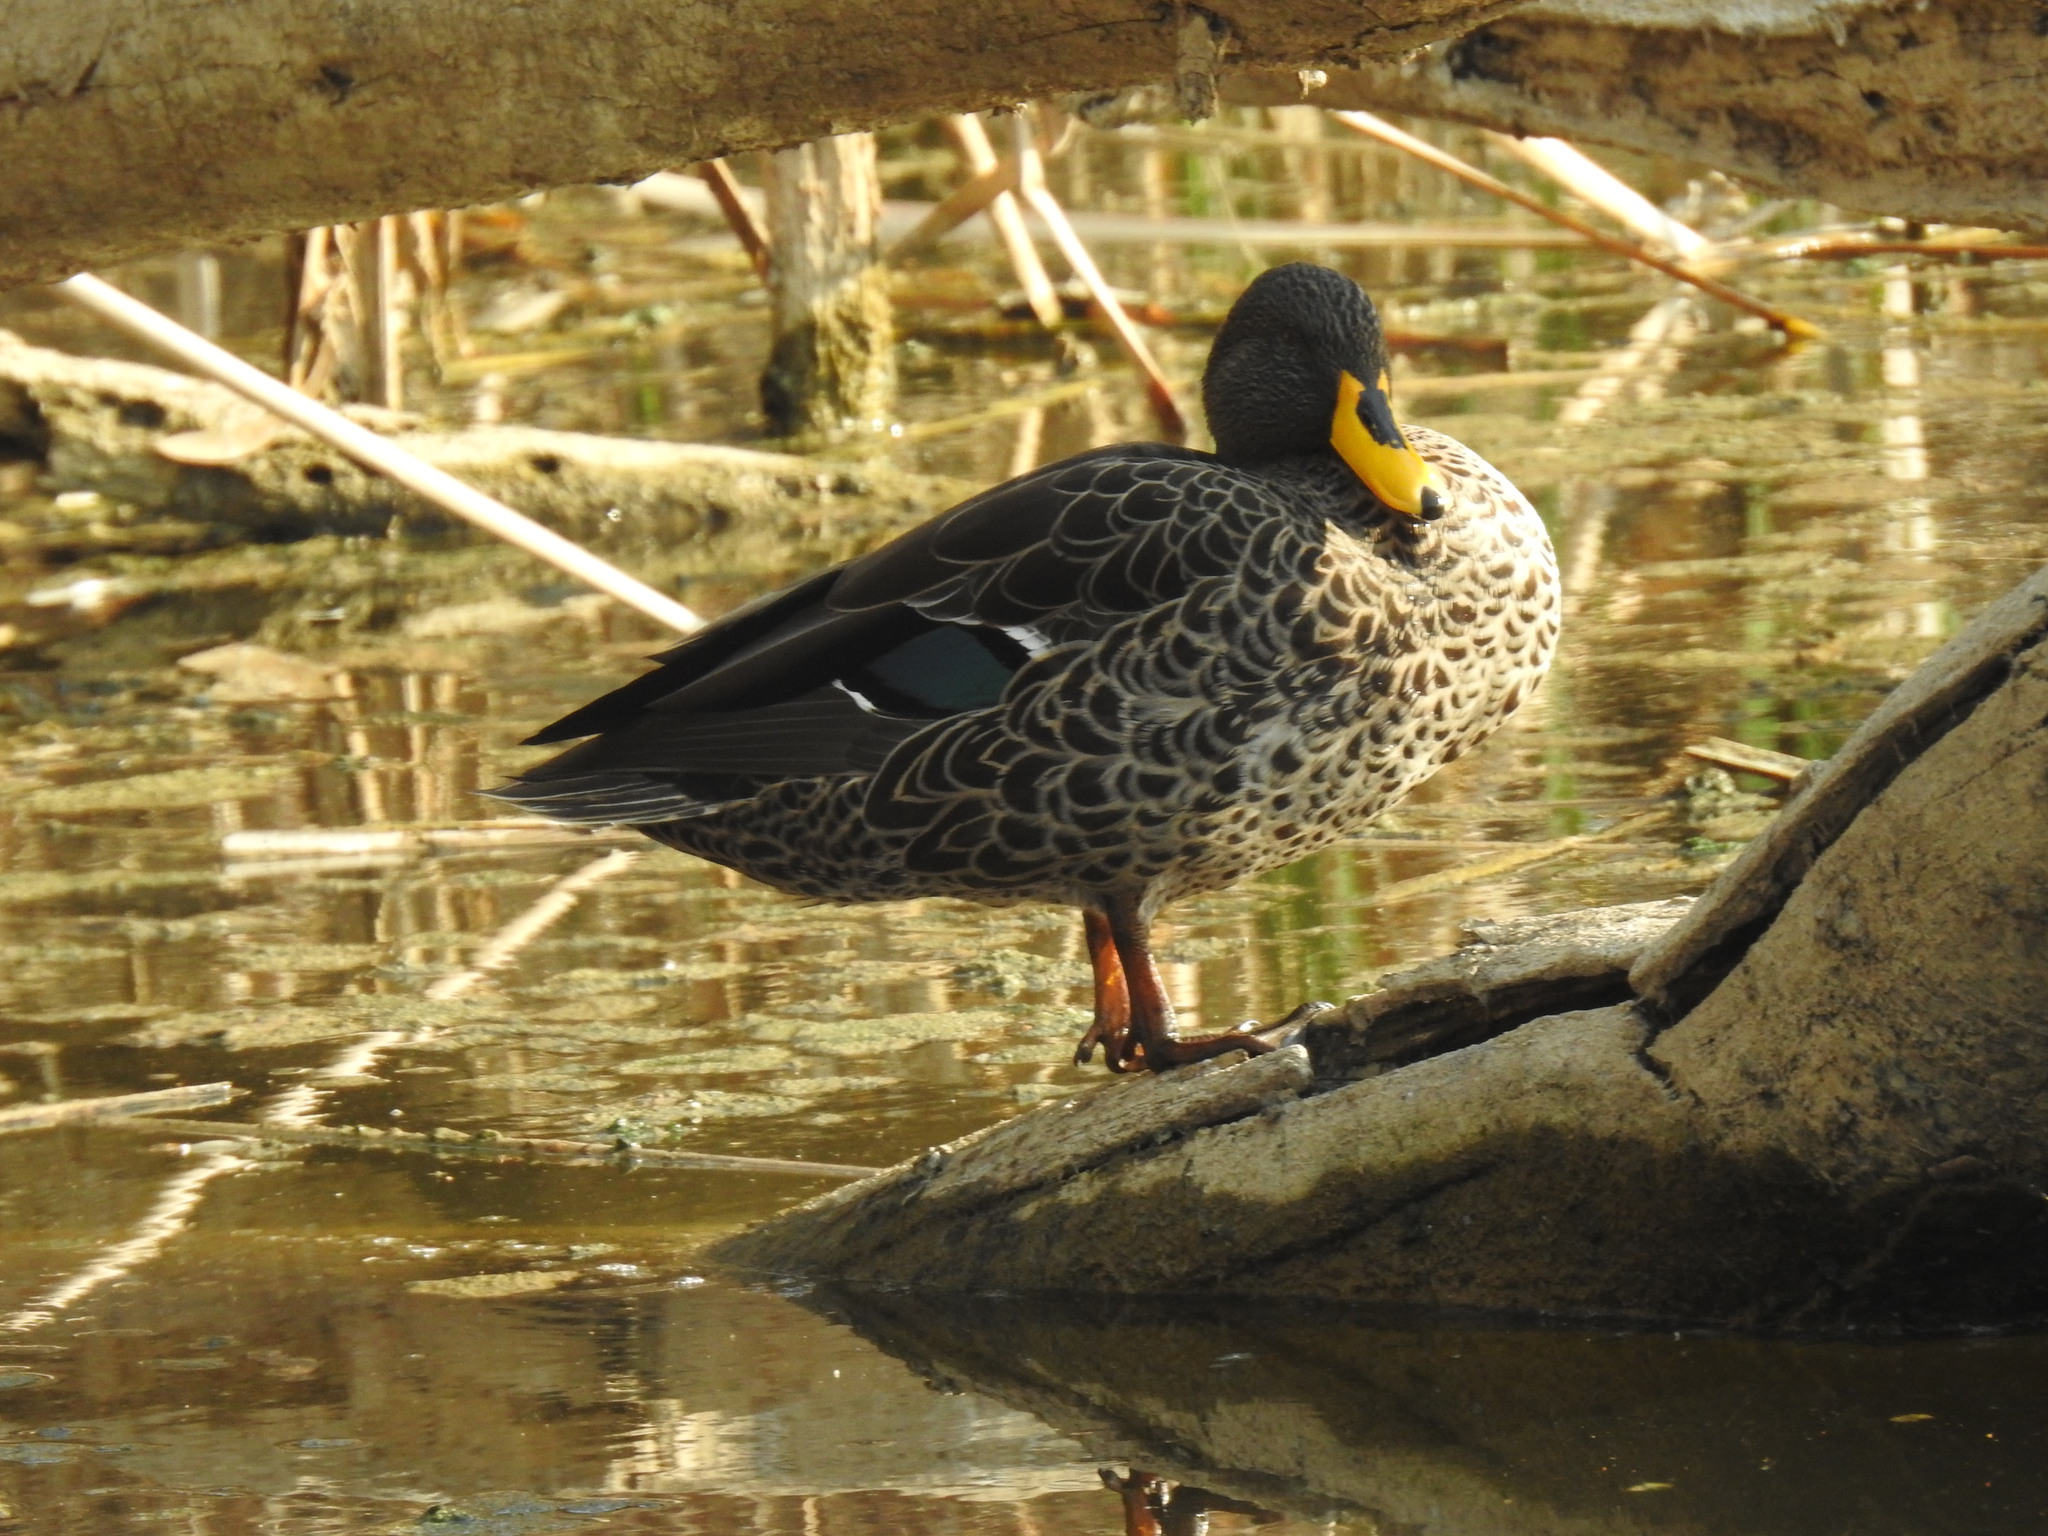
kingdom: Animalia
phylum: Chordata
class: Aves
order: Anseriformes
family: Anatidae
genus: Anas
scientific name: Anas undulata
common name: Yellow-billed duck
